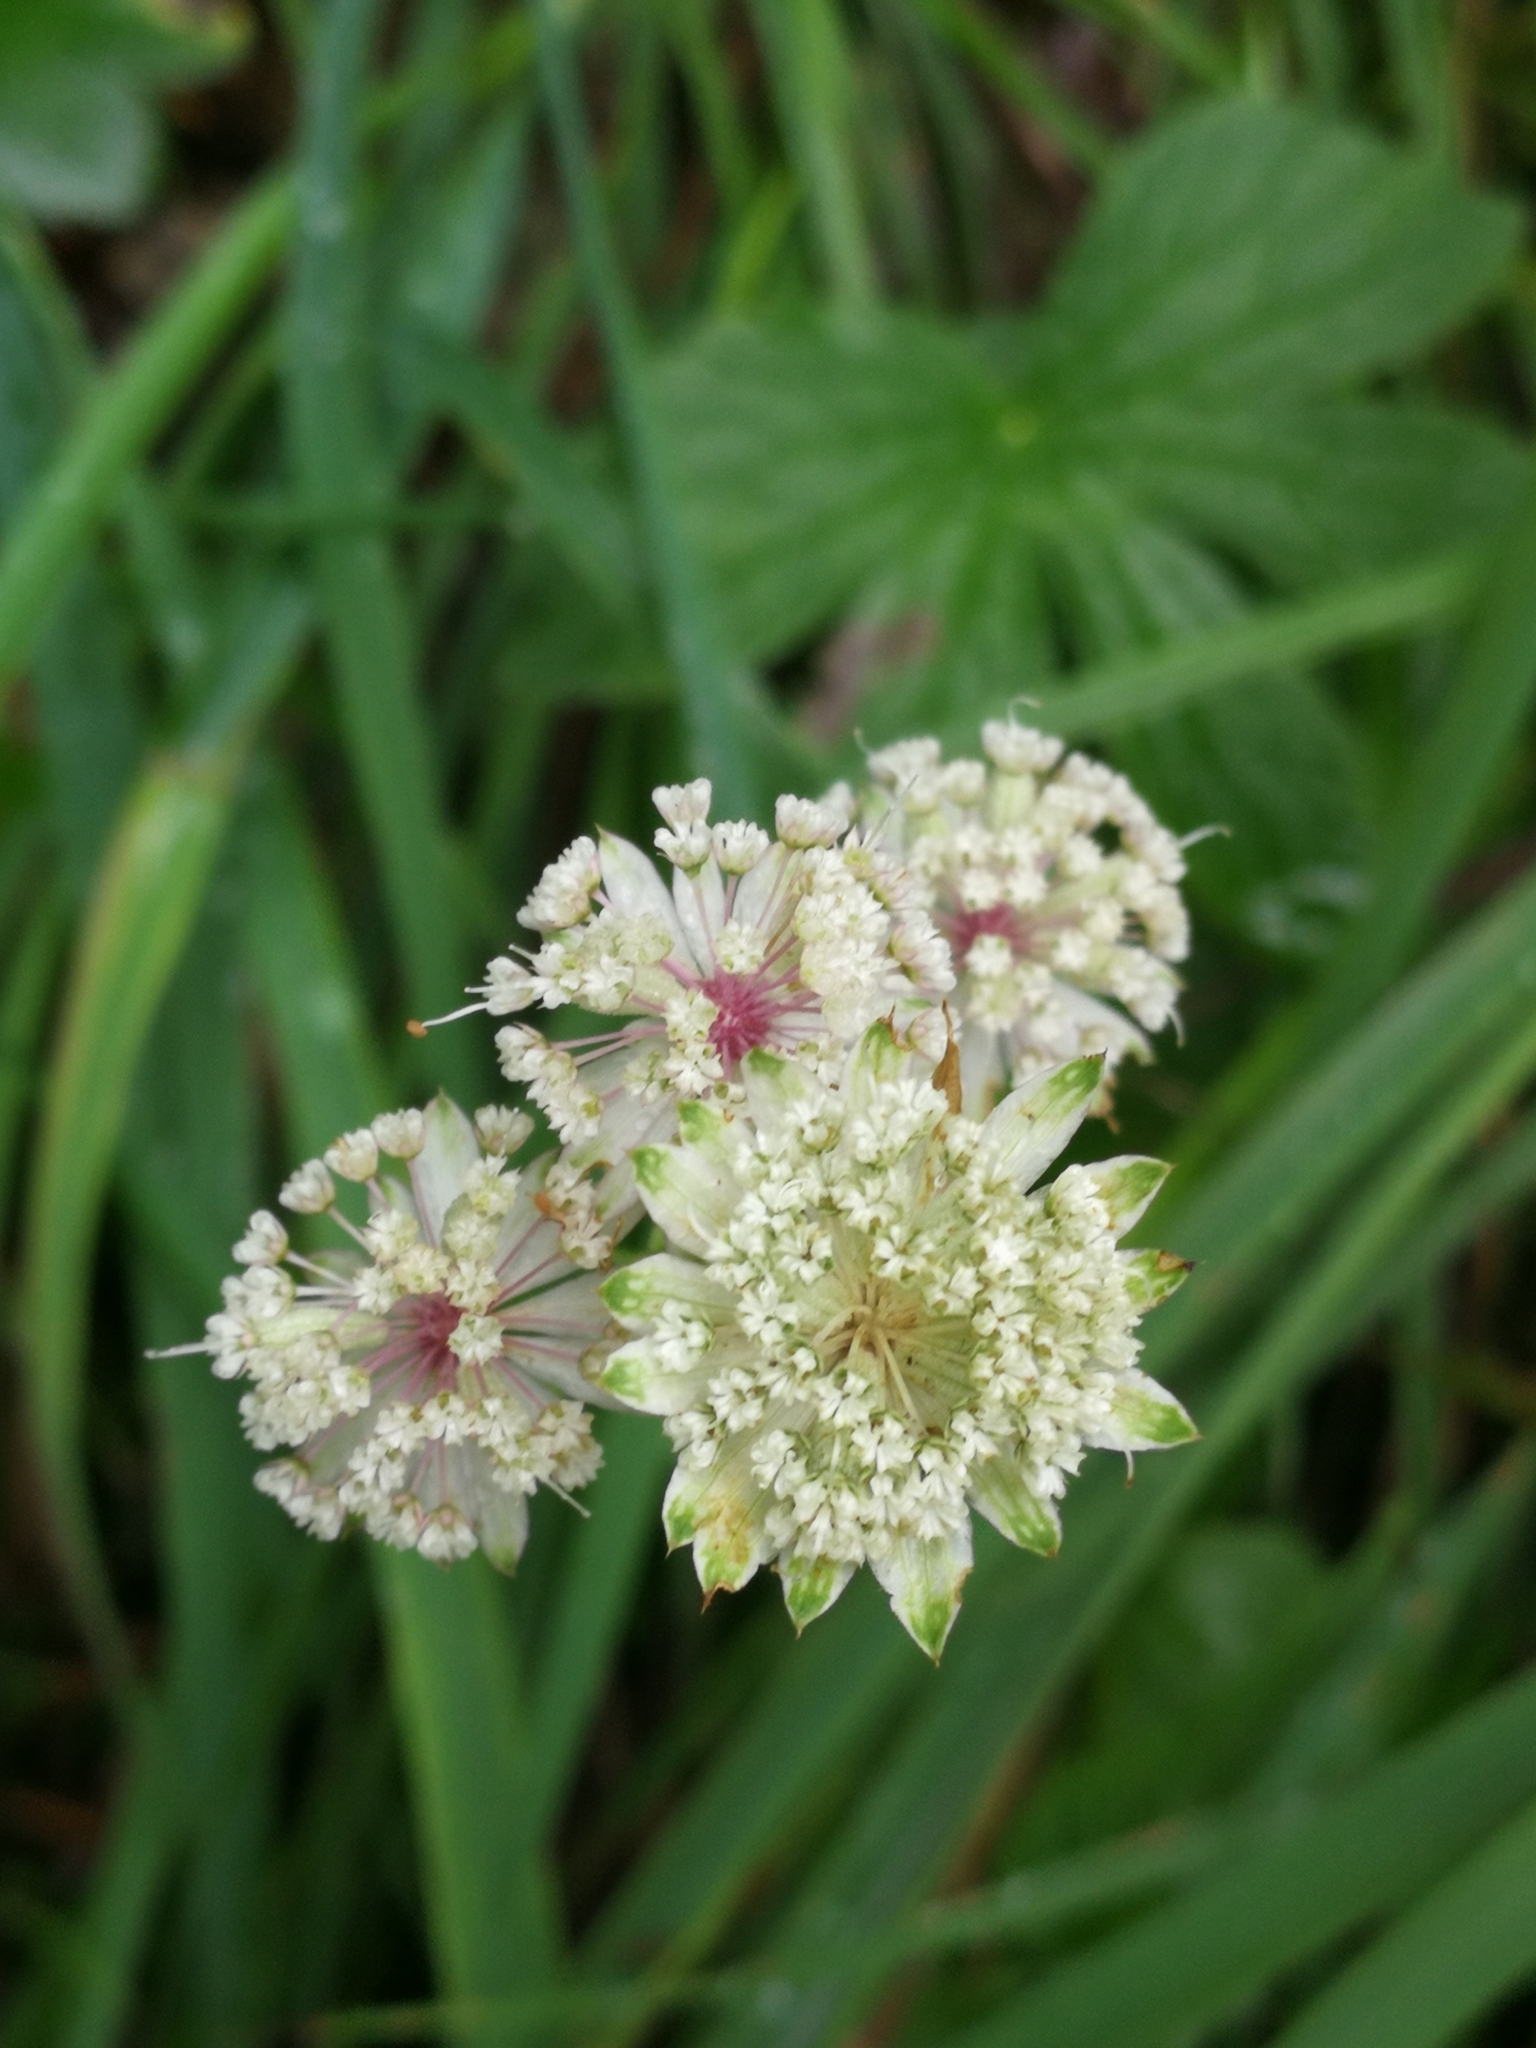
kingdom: Plantae
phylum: Tracheophyta
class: Magnoliopsida
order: Apiales
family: Apiaceae
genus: Astrantia
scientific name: Astrantia major
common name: Greater masterwort
